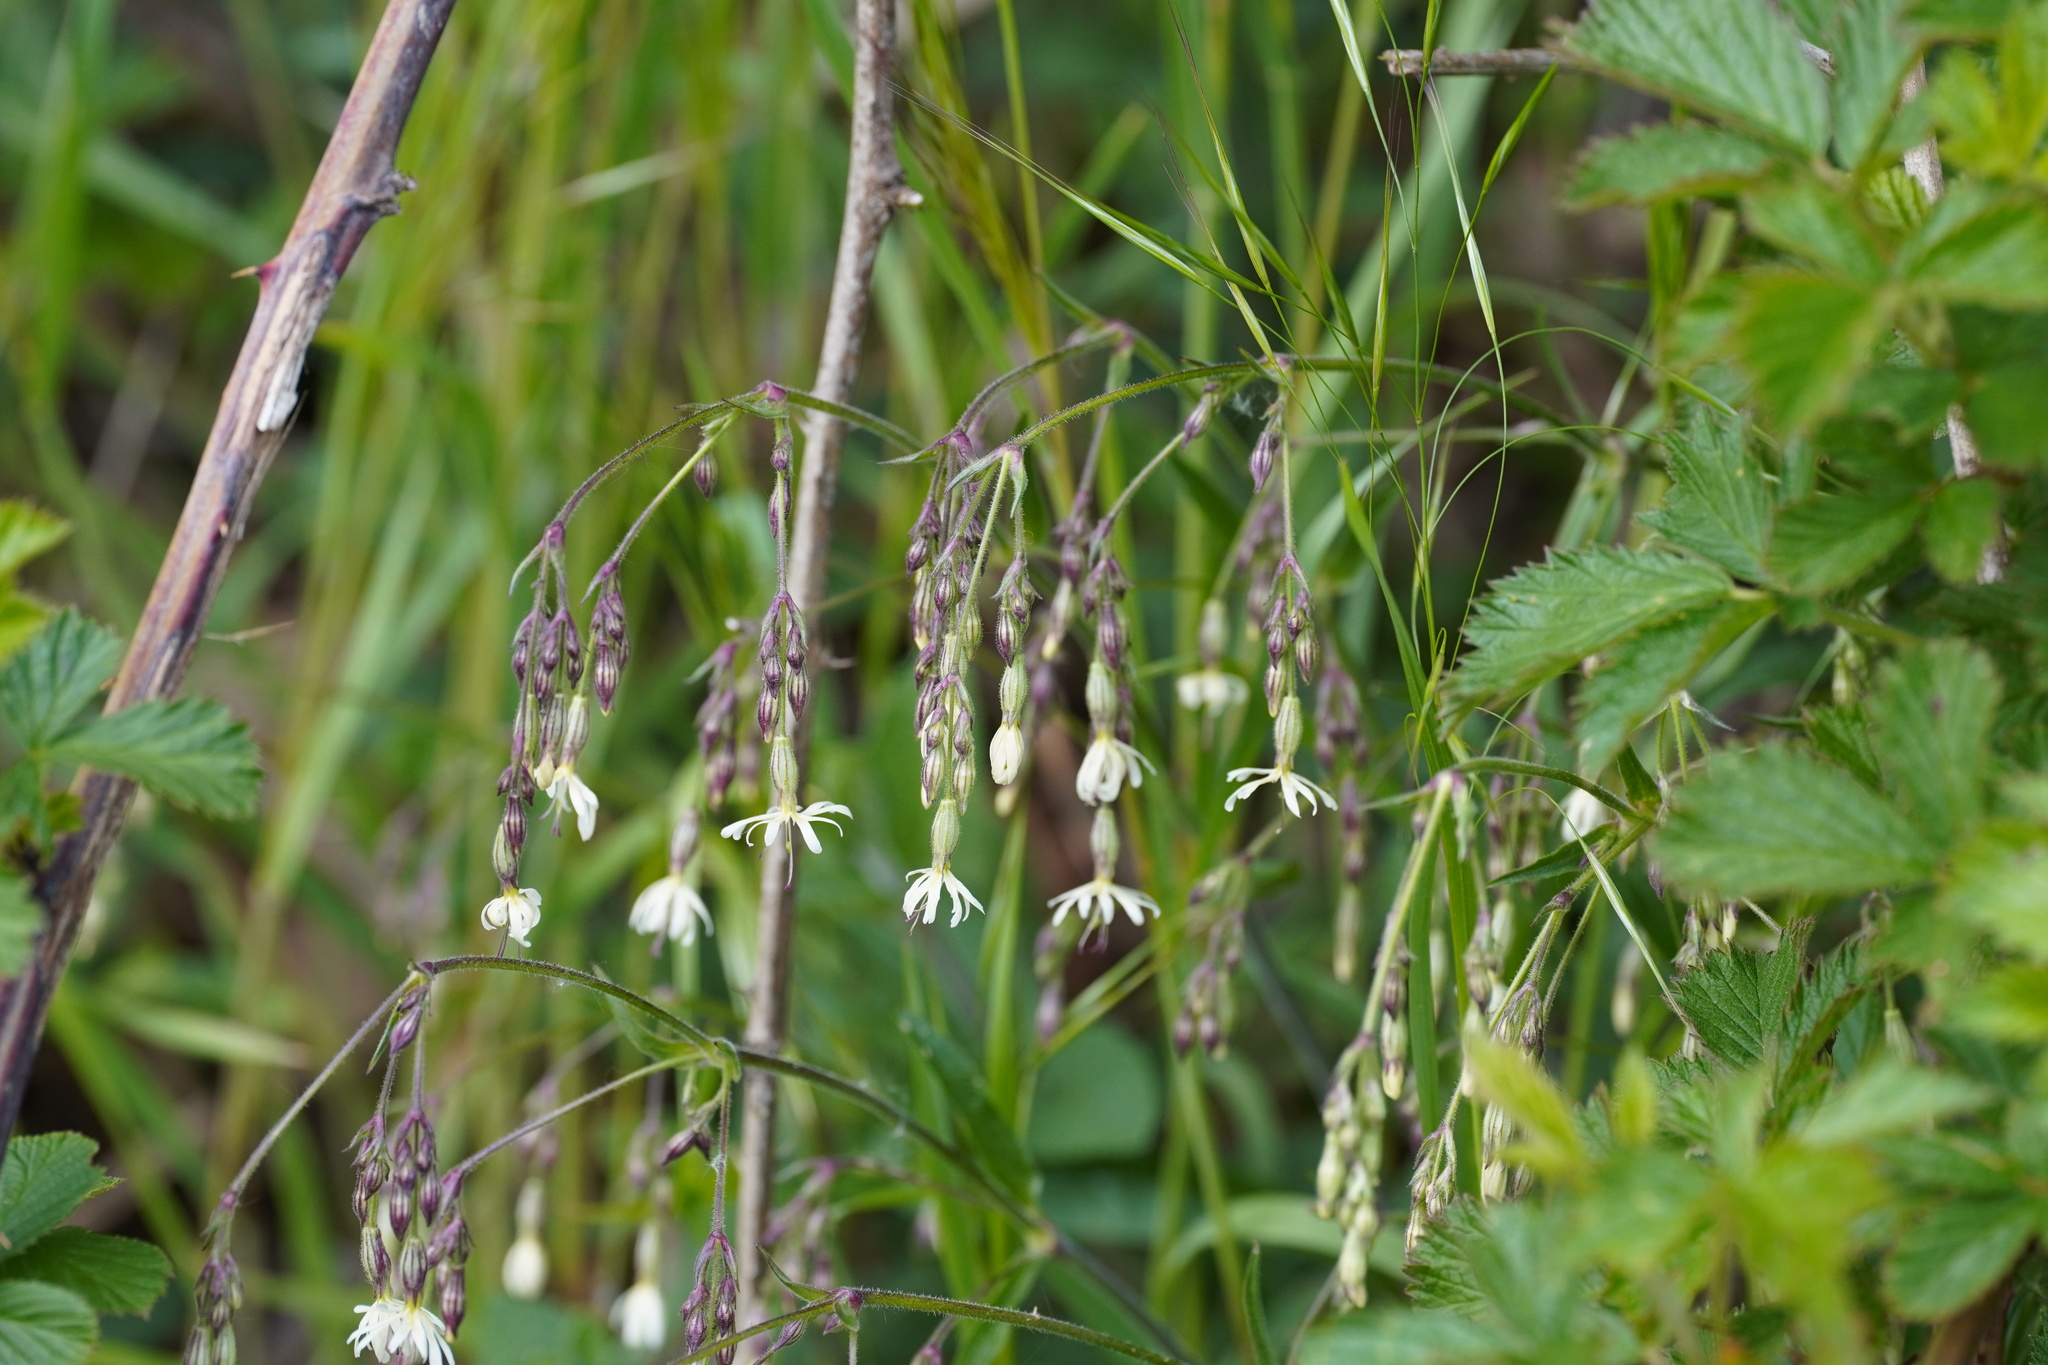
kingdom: Plantae
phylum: Tracheophyta
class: Magnoliopsida
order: Caryophyllales
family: Caryophyllaceae
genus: Silene
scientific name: Silene nutans
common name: Nottingham catchfly
